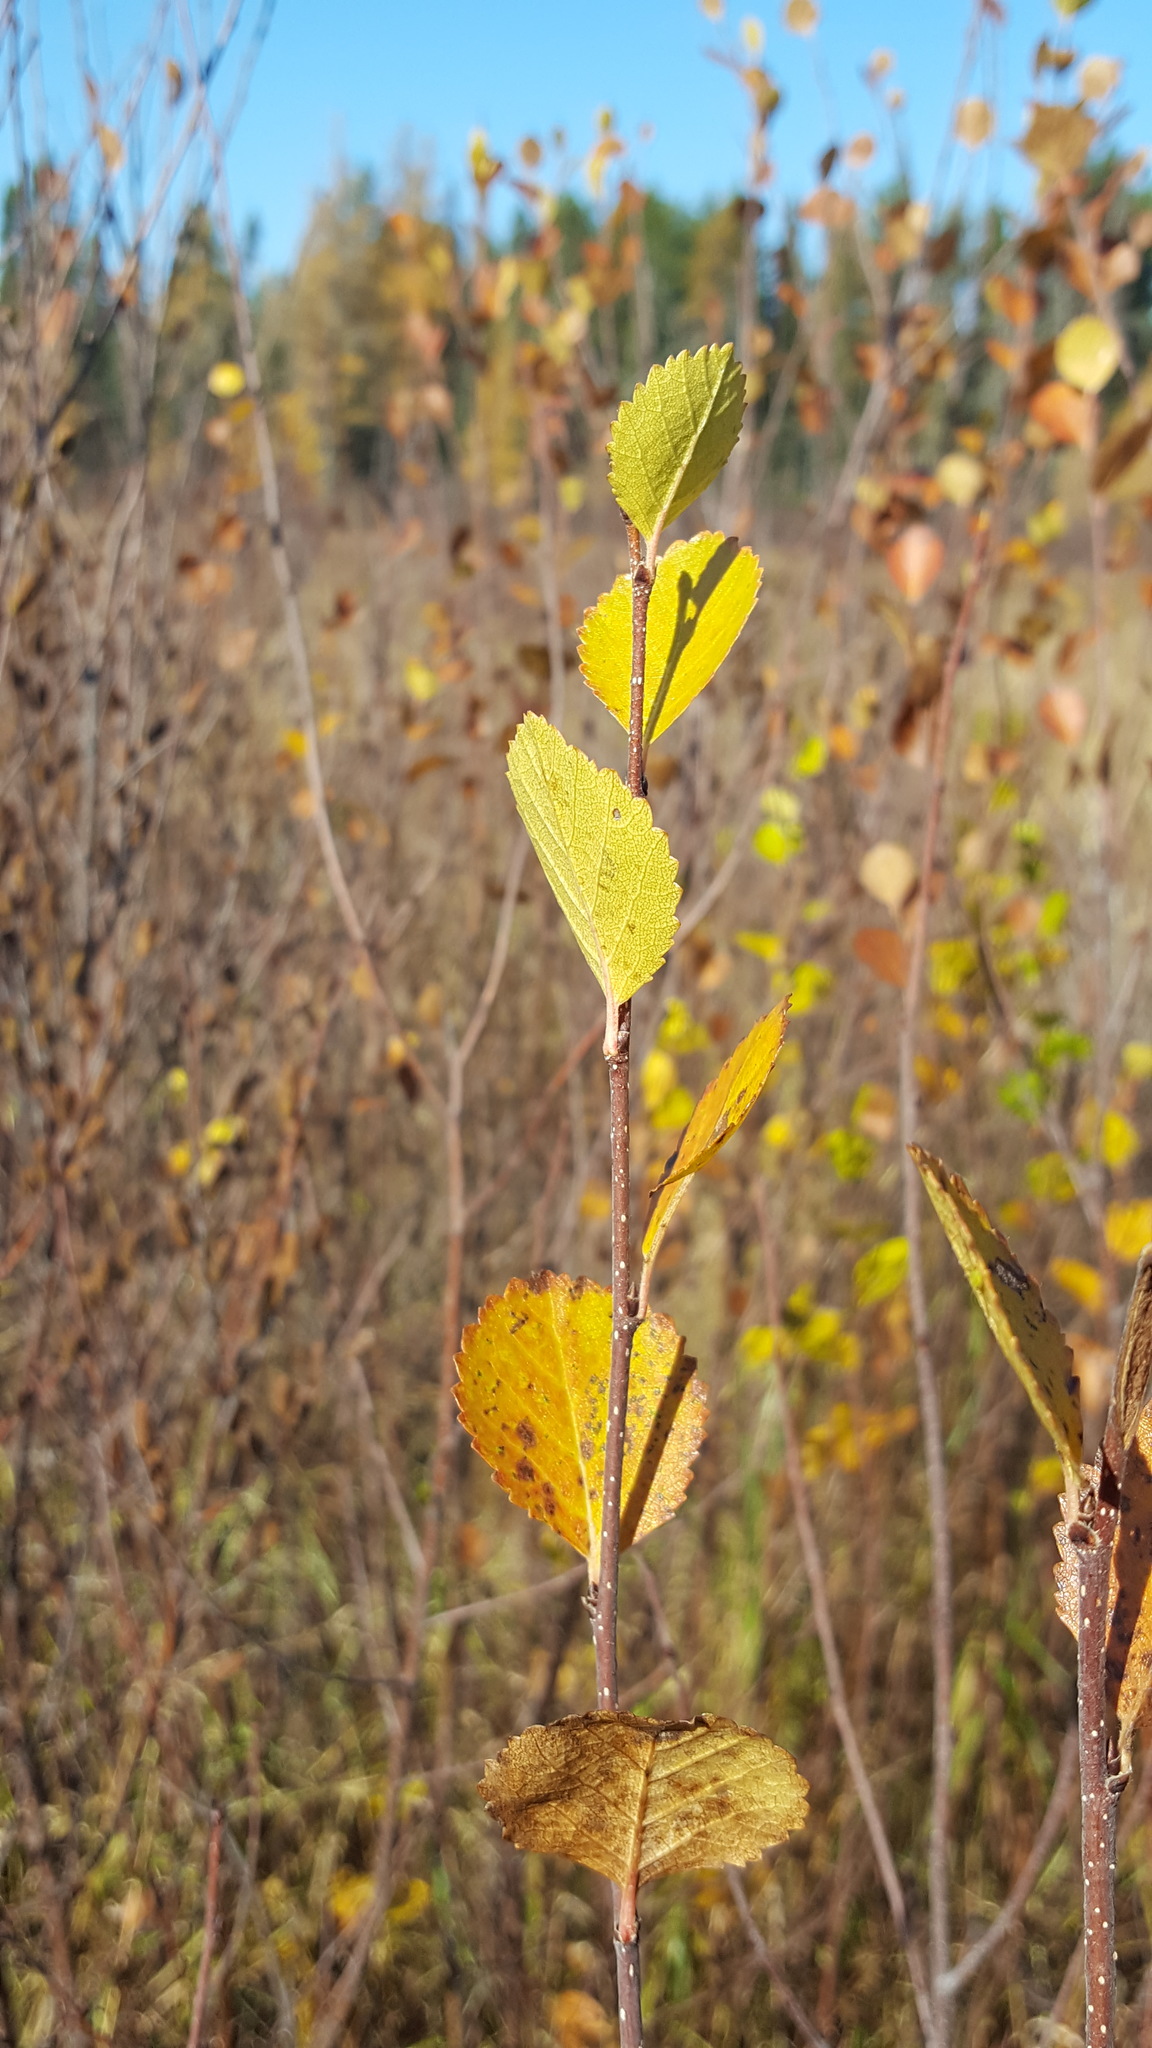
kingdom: Plantae
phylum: Tracheophyta
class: Magnoliopsida
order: Fagales
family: Betulaceae
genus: Betula
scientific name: Betula pumila
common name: Bog birch
